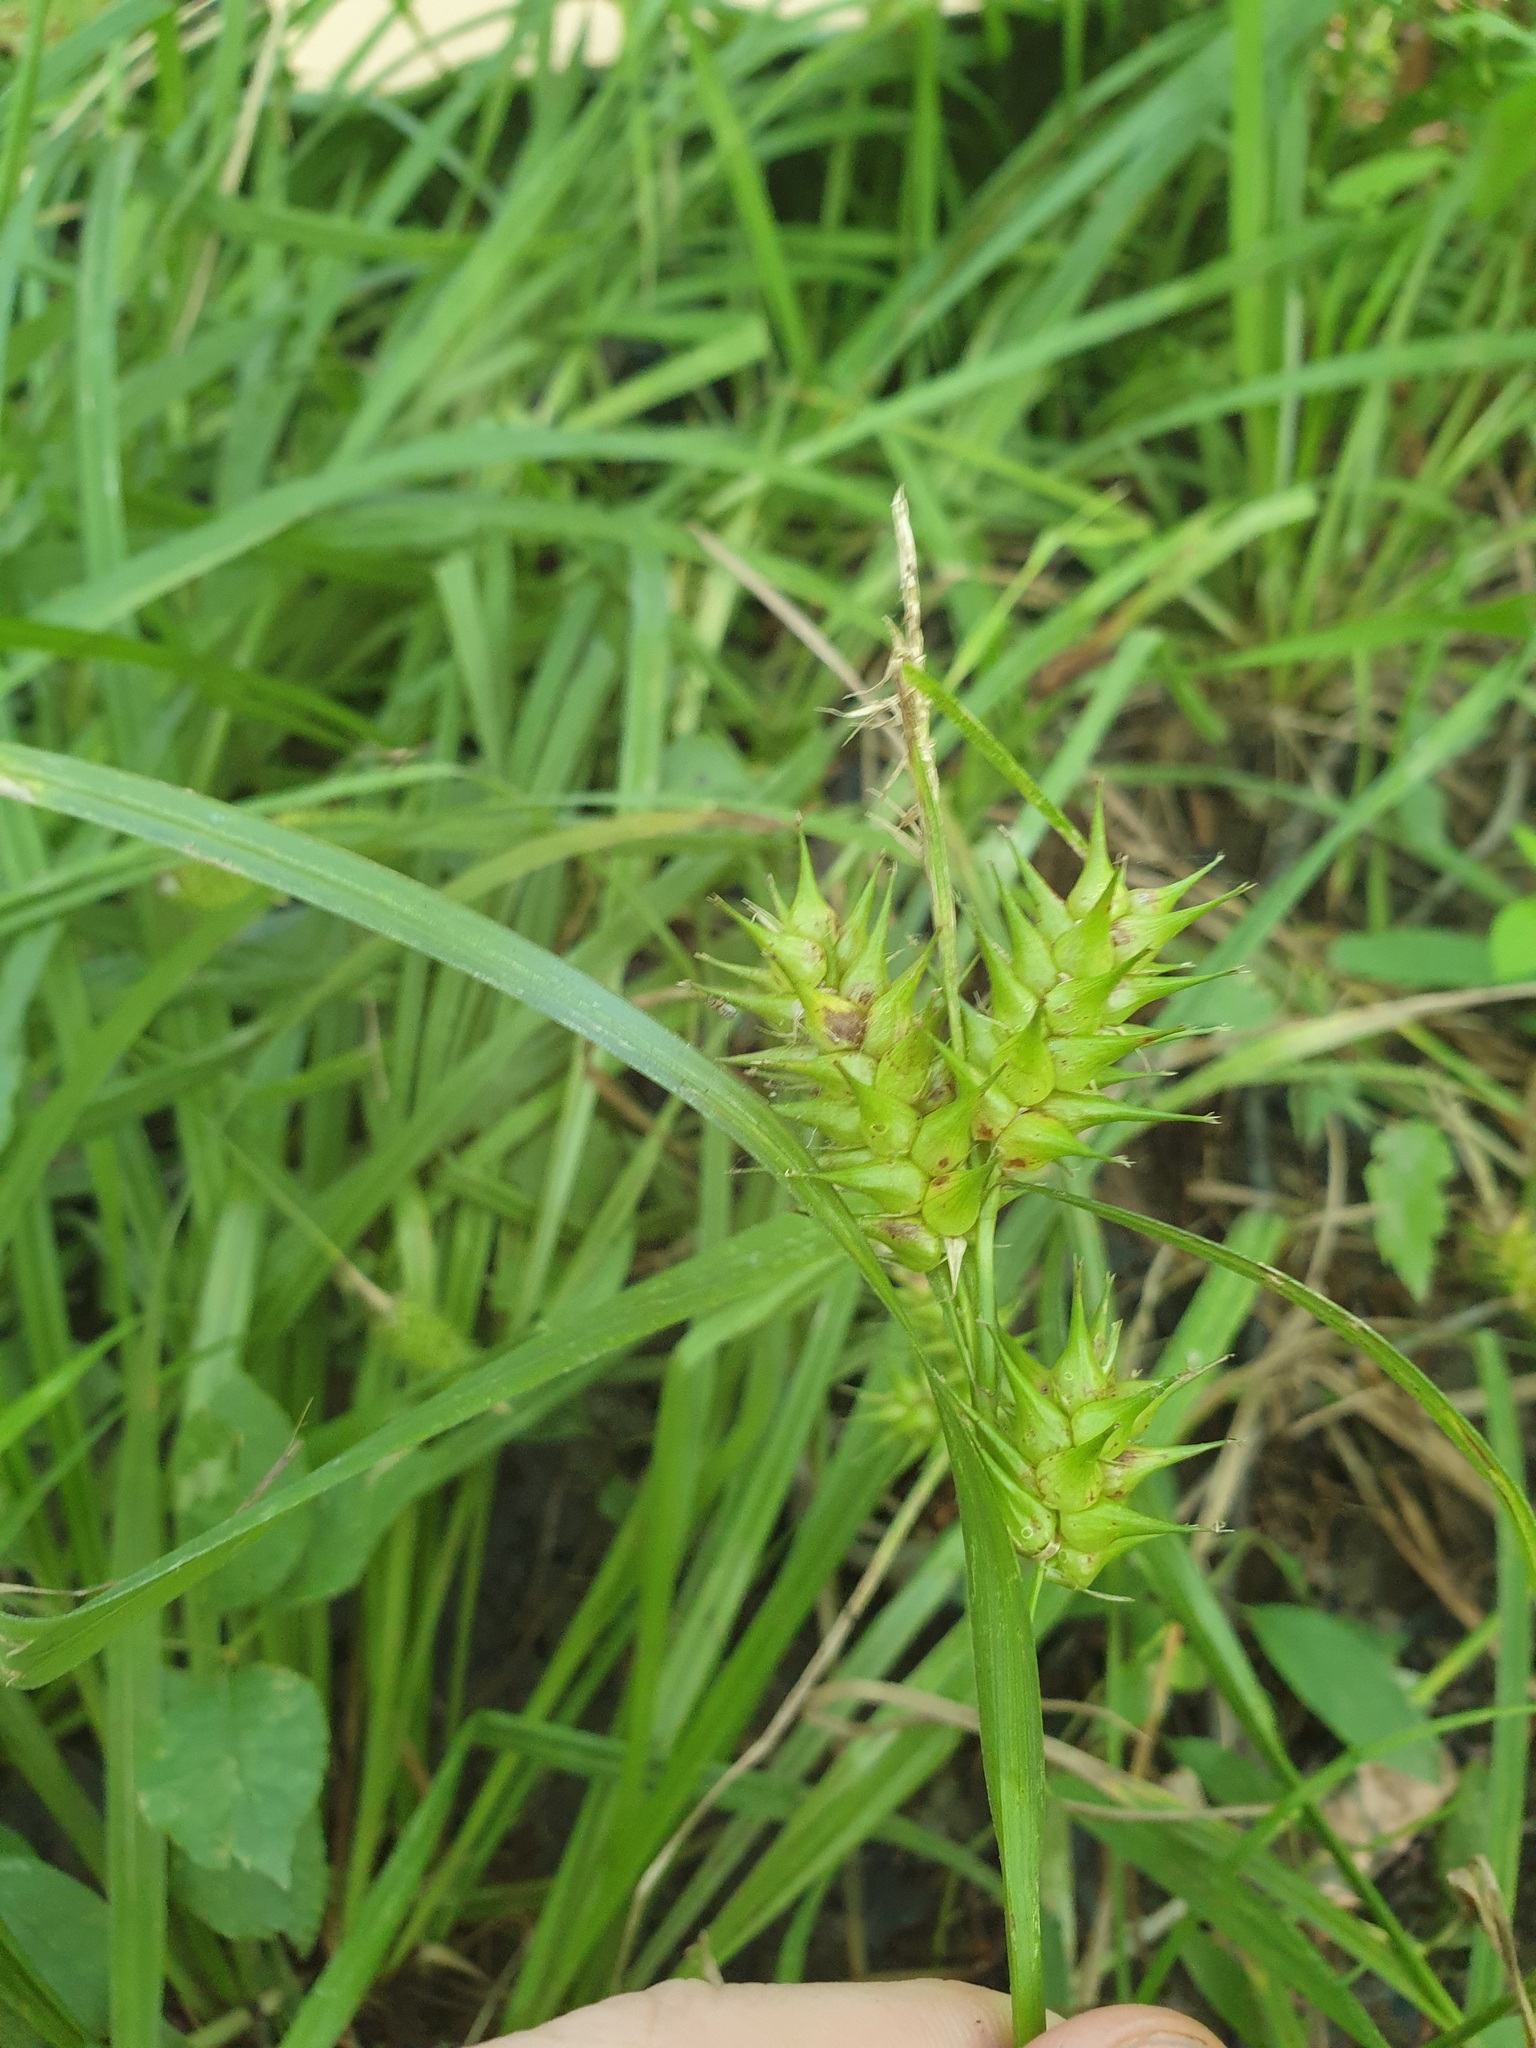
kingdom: Plantae
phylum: Tracheophyta
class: Liliopsida
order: Poales
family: Cyperaceae
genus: Carex
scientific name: Carex lupulina
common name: Hop sedge
